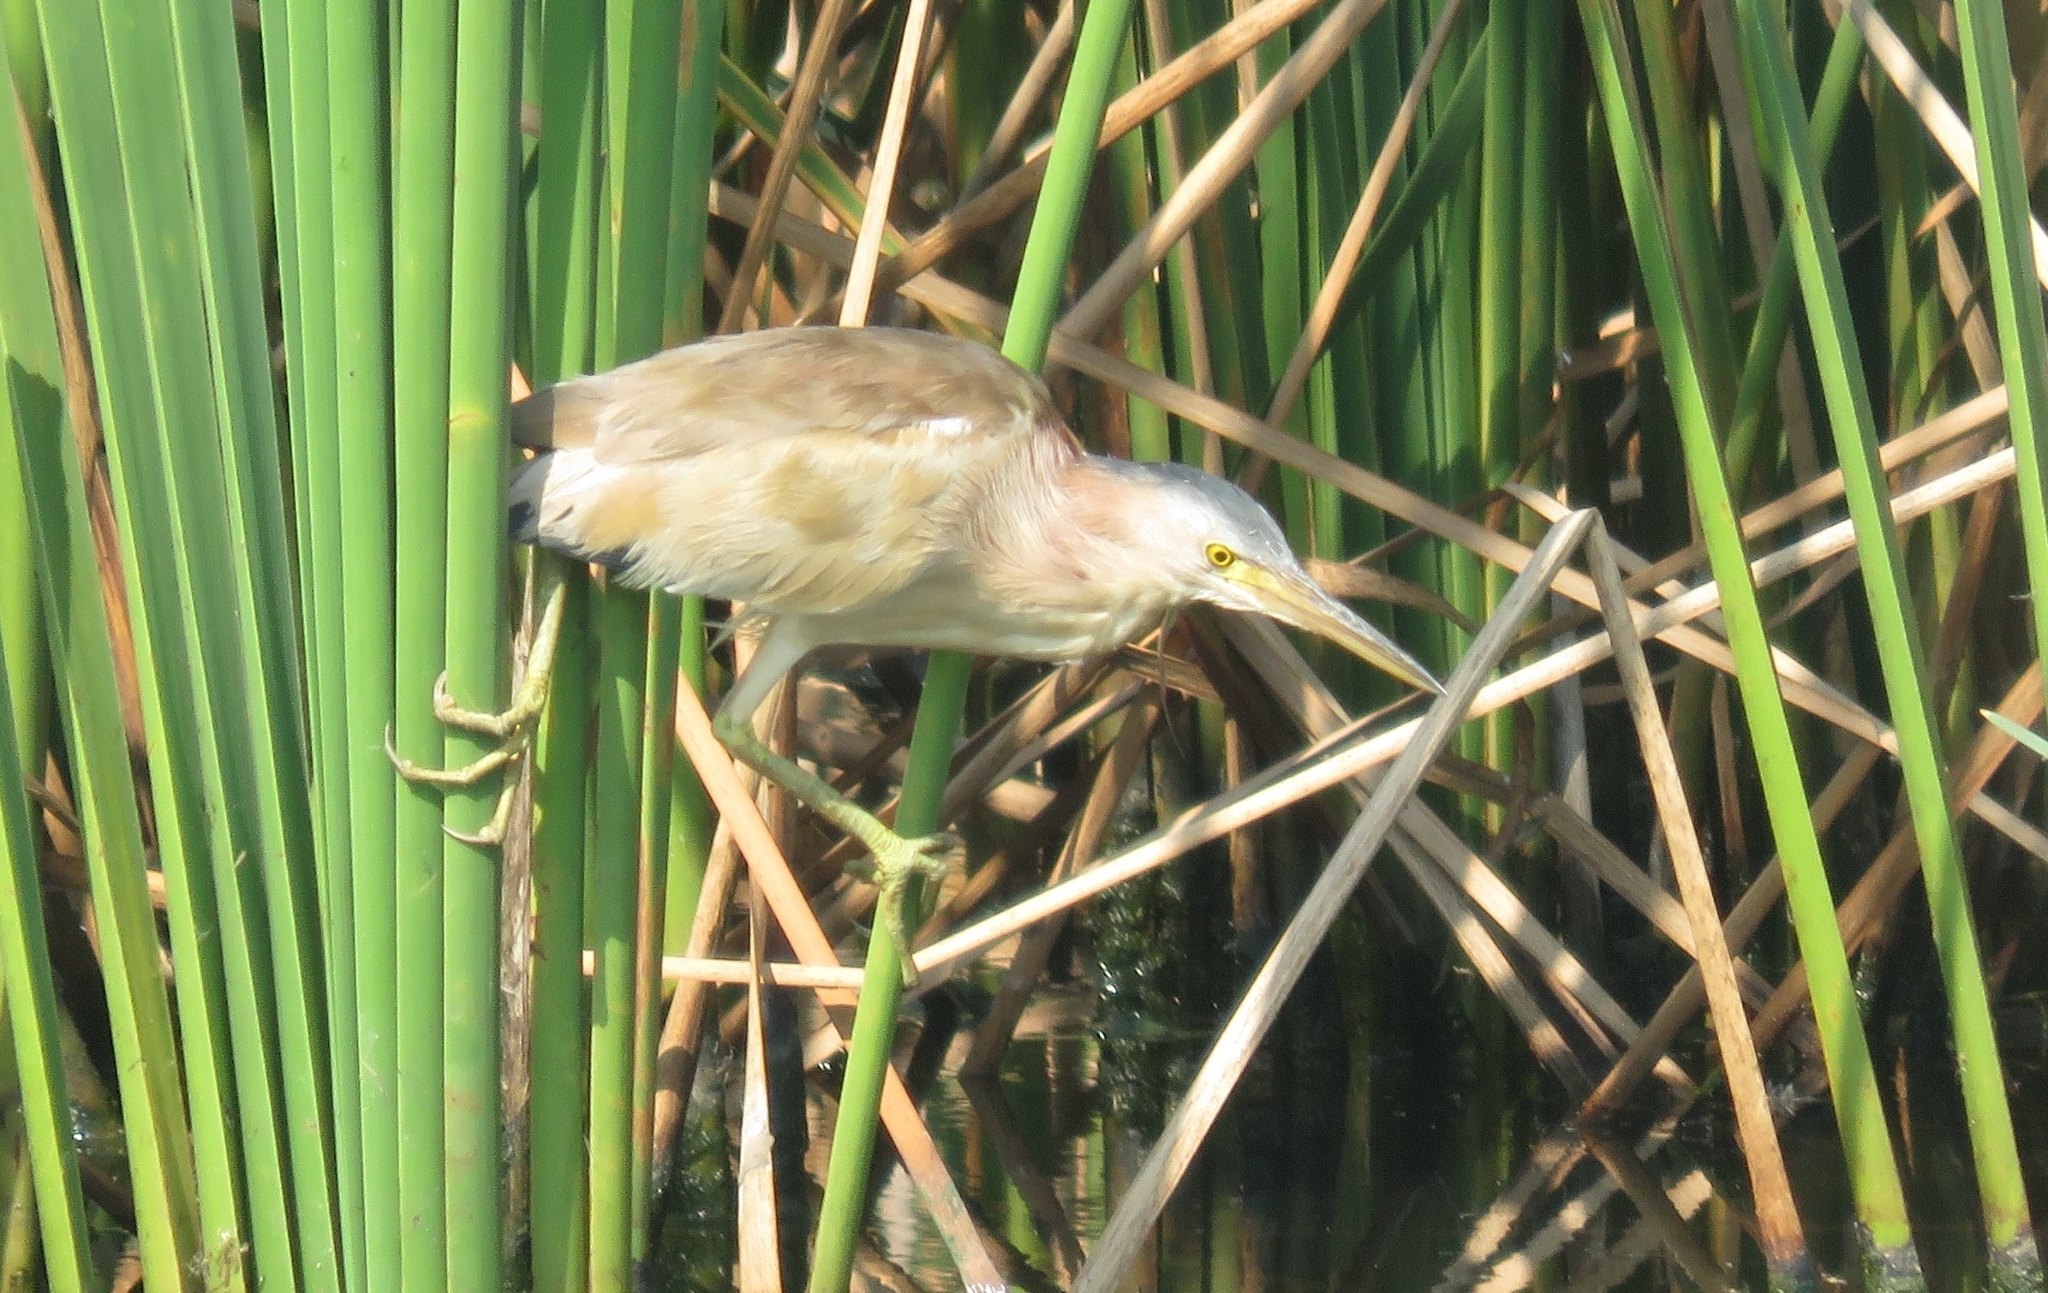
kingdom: Animalia
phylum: Chordata
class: Aves
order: Pelecaniformes
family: Ardeidae
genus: Ixobrychus
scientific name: Ixobrychus sinensis
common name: Yellow bittern
